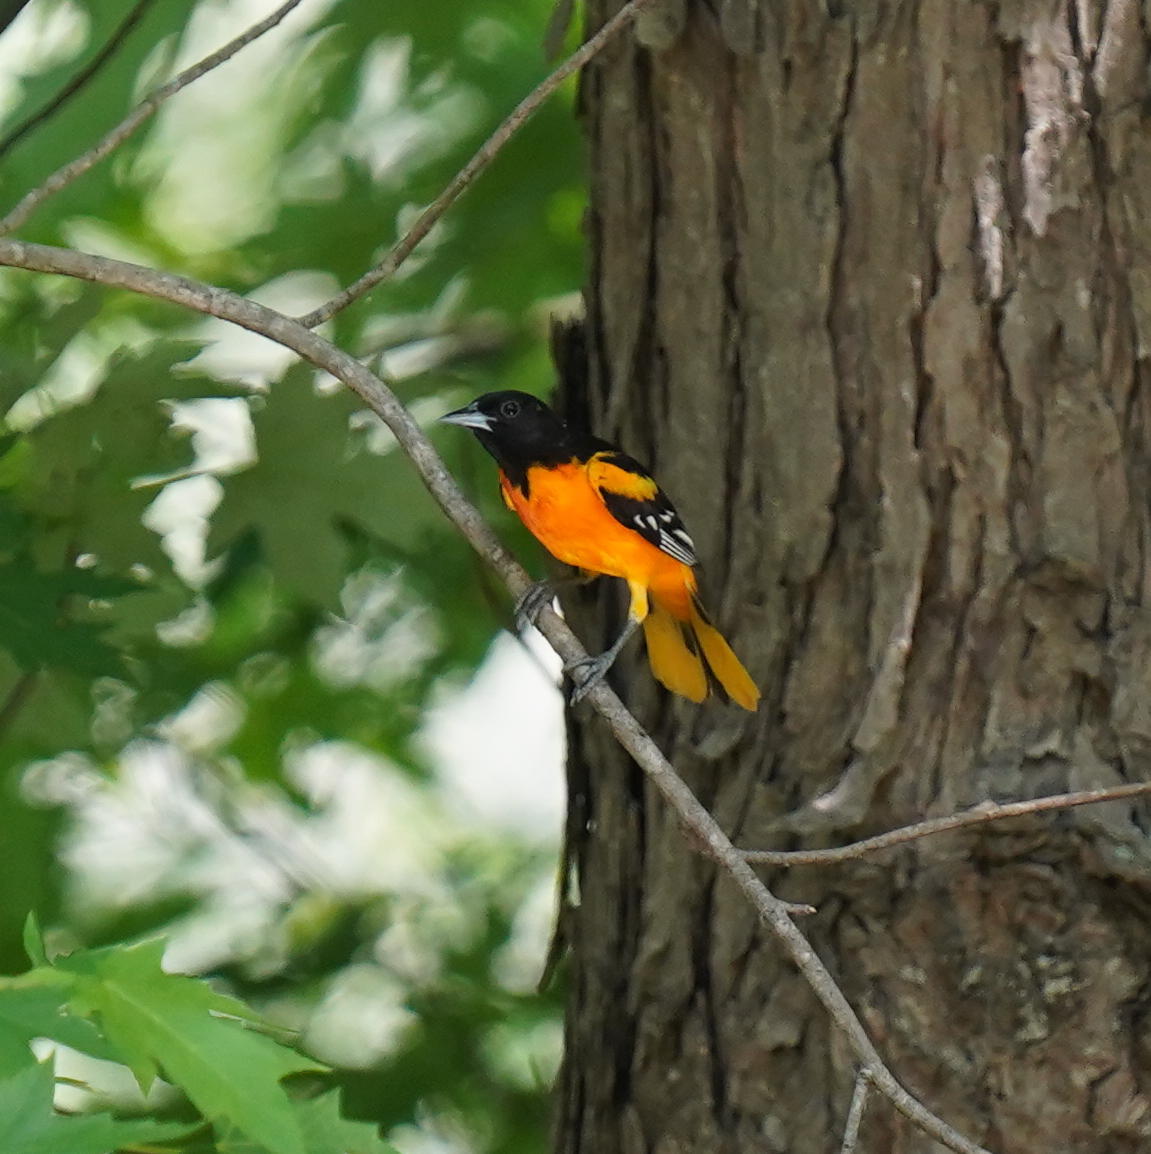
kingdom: Animalia
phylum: Chordata
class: Aves
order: Passeriformes
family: Icteridae
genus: Icterus
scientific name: Icterus galbula
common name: Baltimore oriole
